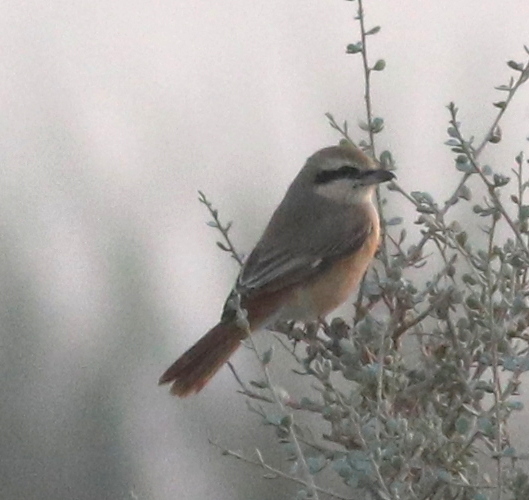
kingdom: Animalia
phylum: Chordata
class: Aves
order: Passeriformes
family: Laniidae
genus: Lanius
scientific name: Lanius isabellinus
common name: Isabelline shrike
